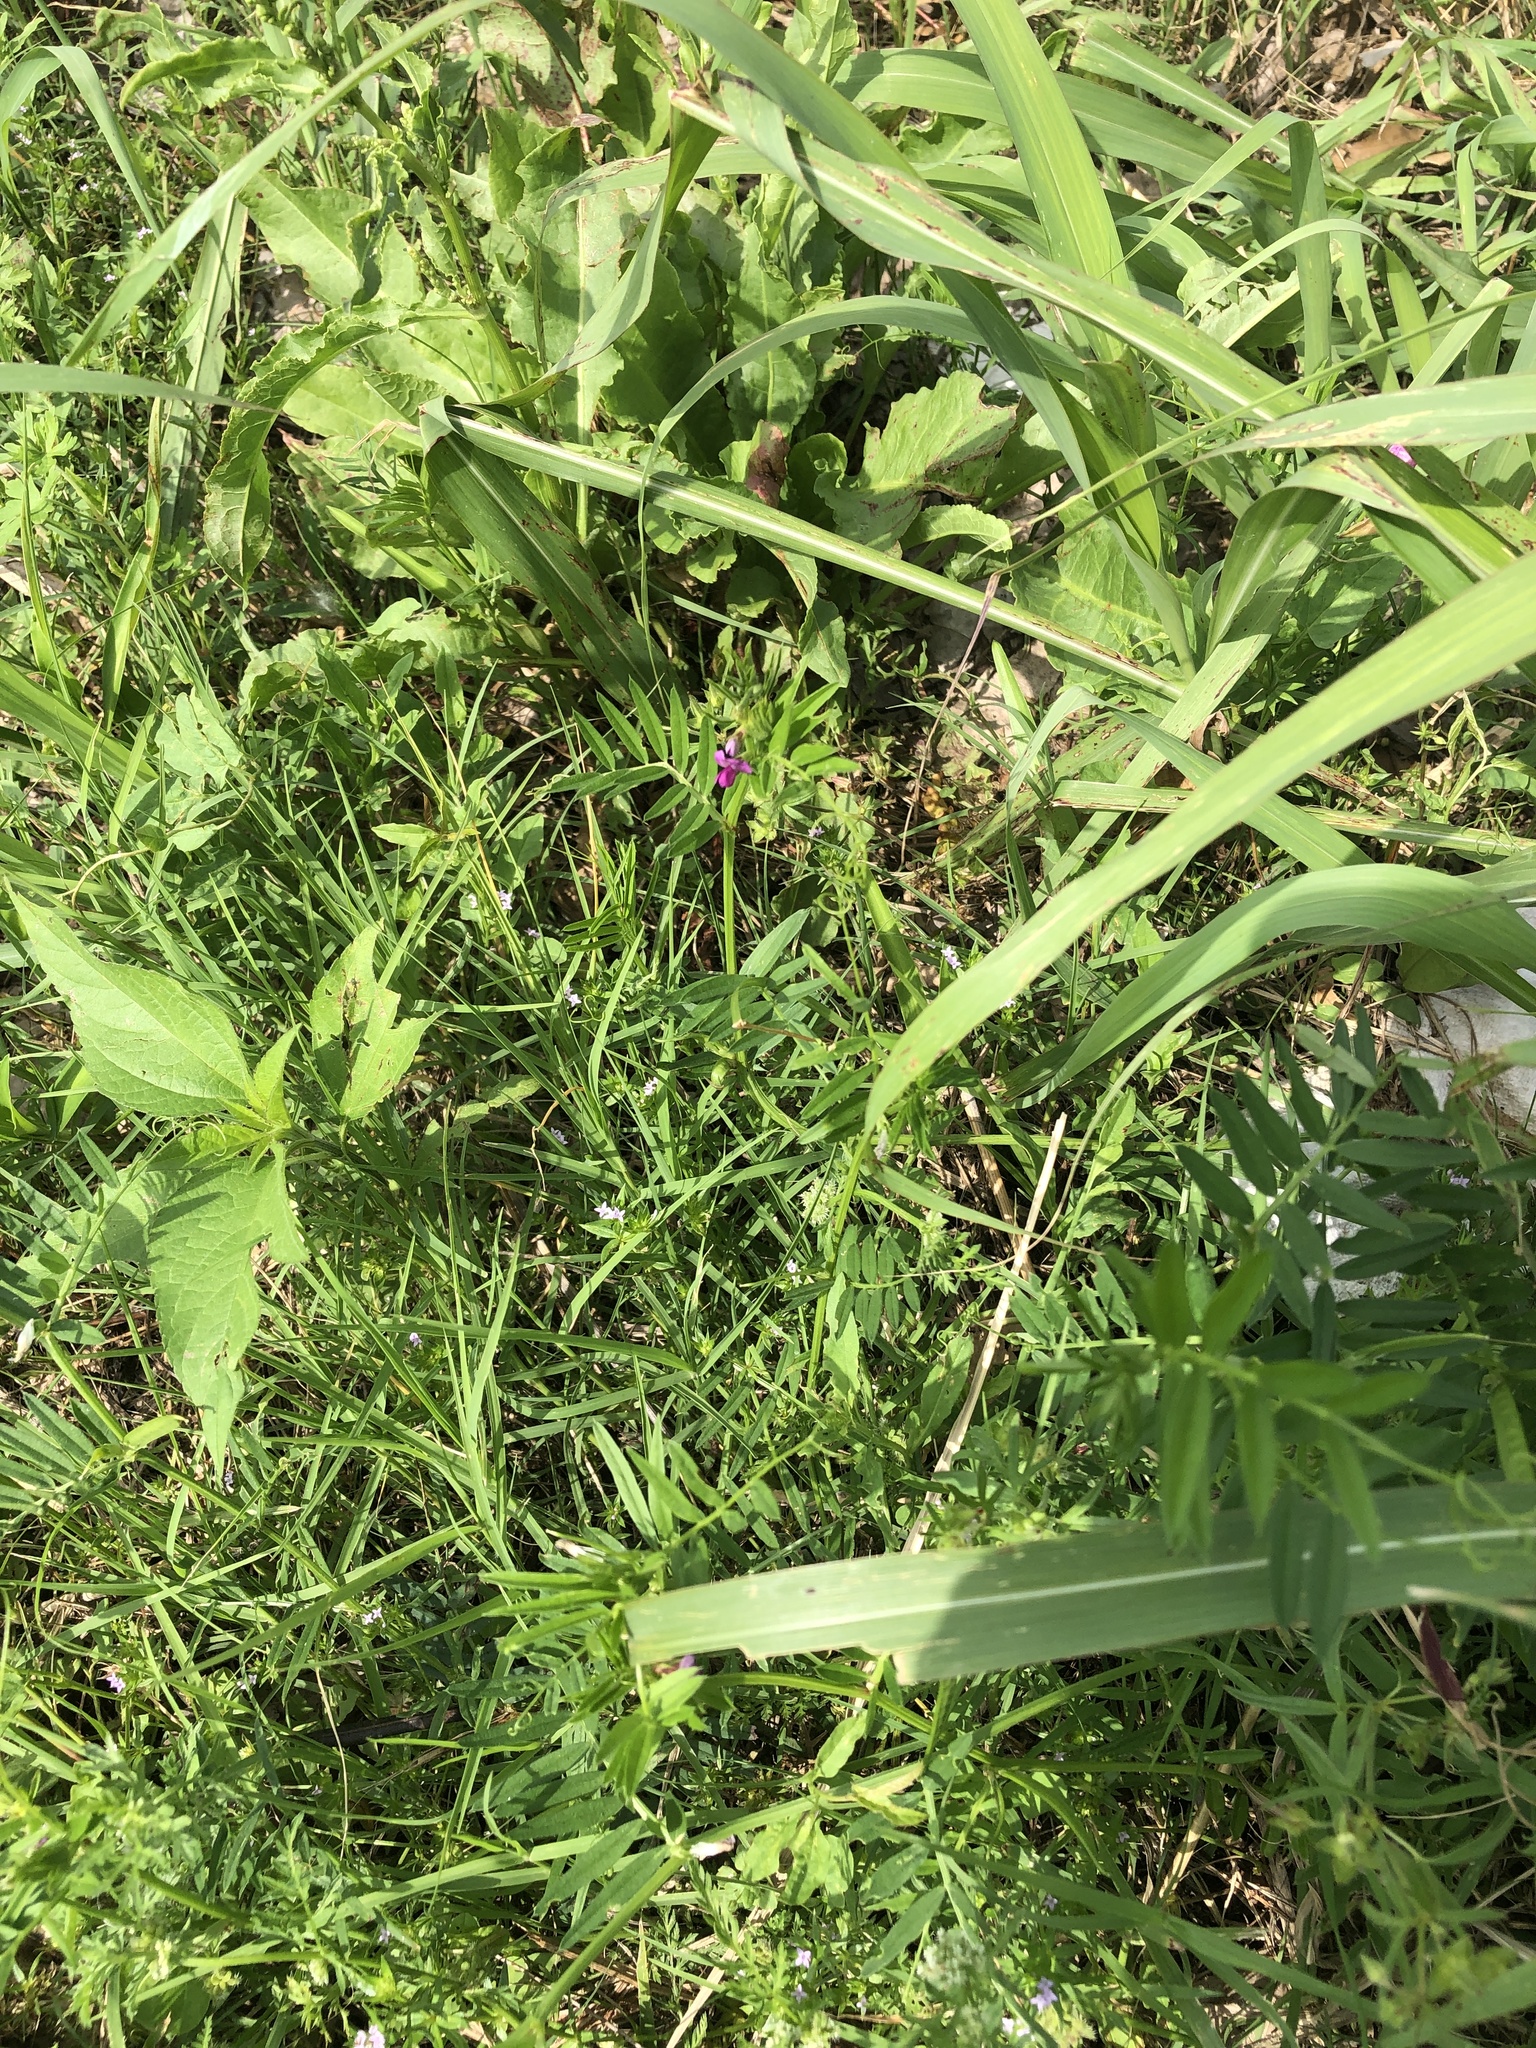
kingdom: Plantae
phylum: Tracheophyta
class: Magnoliopsida
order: Fabales
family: Fabaceae
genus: Vicia
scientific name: Vicia sativa
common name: Garden vetch
